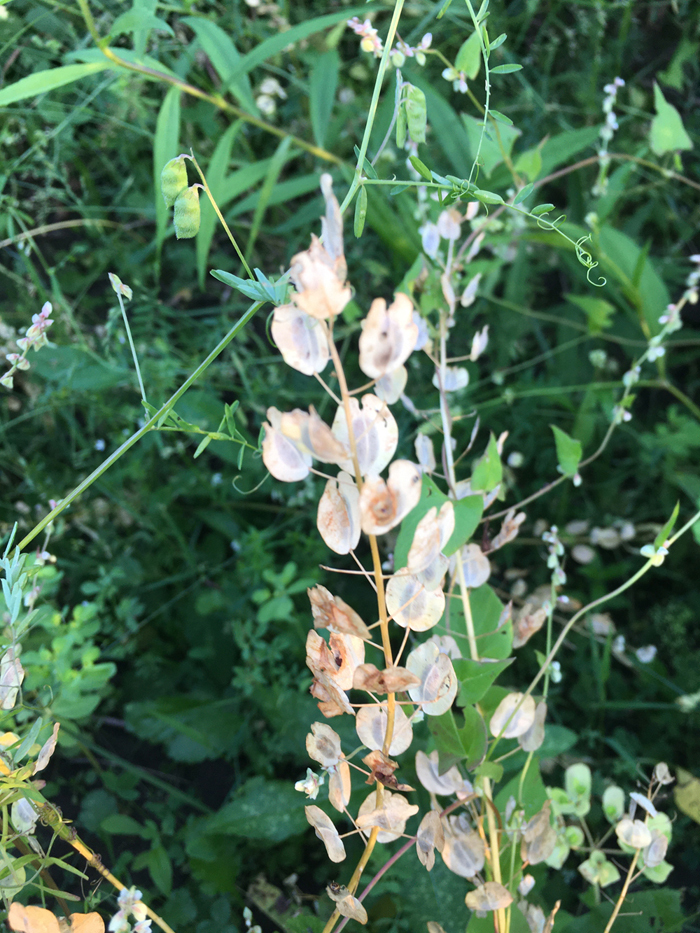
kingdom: Plantae
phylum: Tracheophyta
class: Magnoliopsida
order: Brassicales
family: Brassicaceae
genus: Thlaspi
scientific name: Thlaspi arvense
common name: Field pennycress
